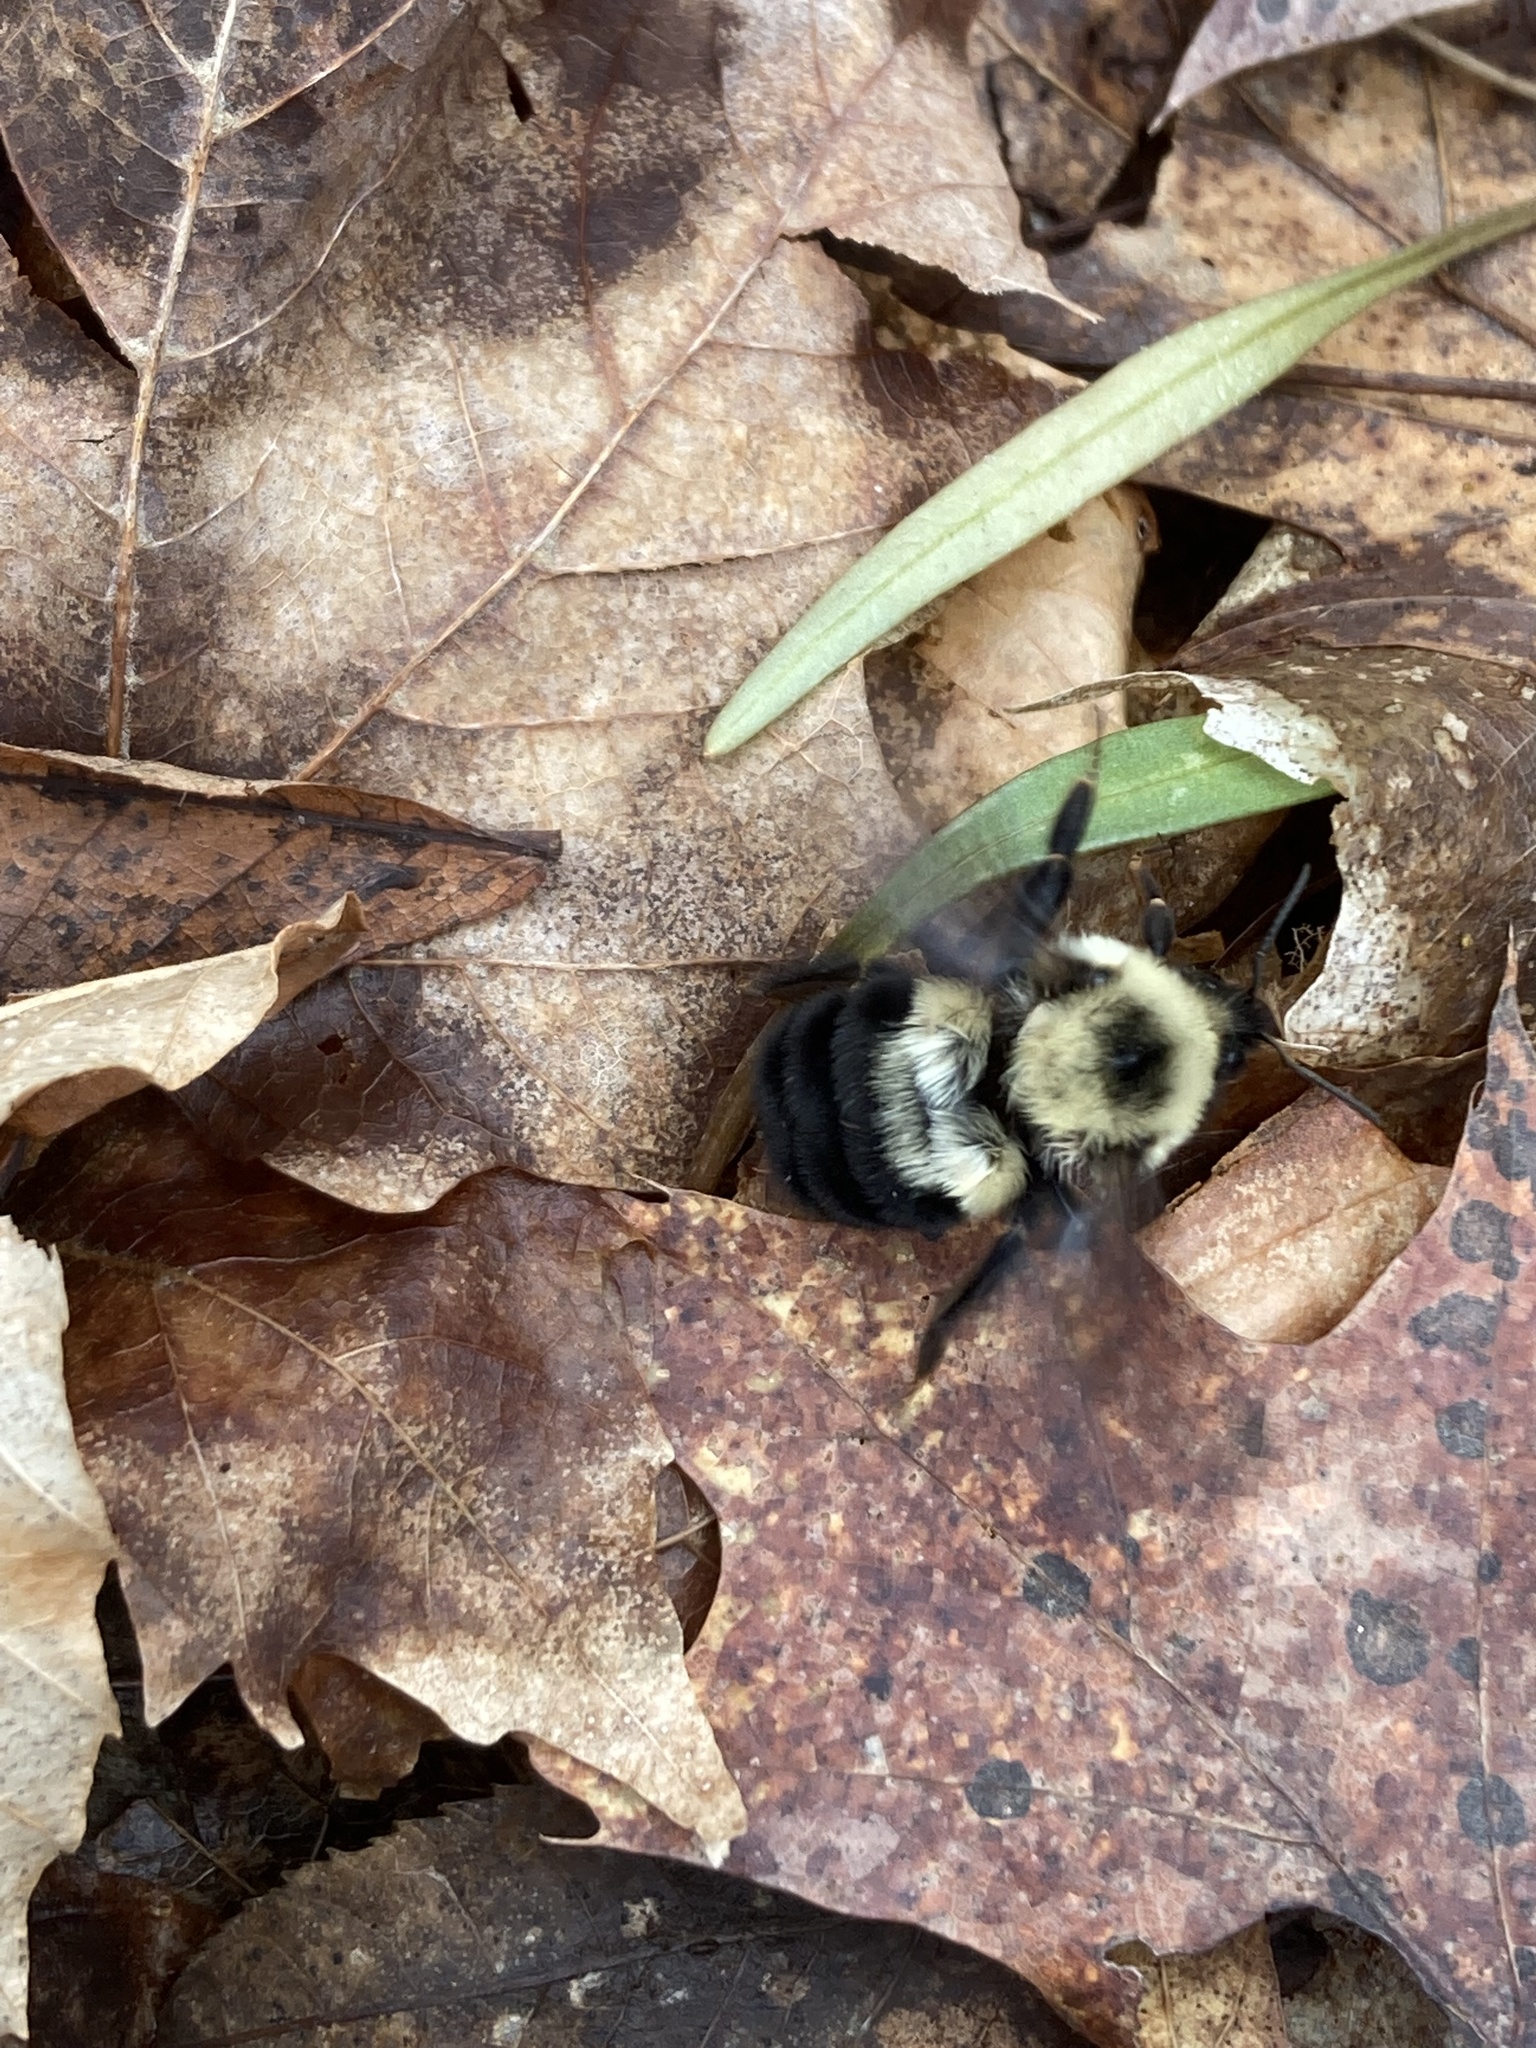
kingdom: Animalia
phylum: Arthropoda
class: Insecta
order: Hymenoptera
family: Apidae
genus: Bombus
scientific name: Bombus bimaculatus
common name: Two-spotted bumble bee
